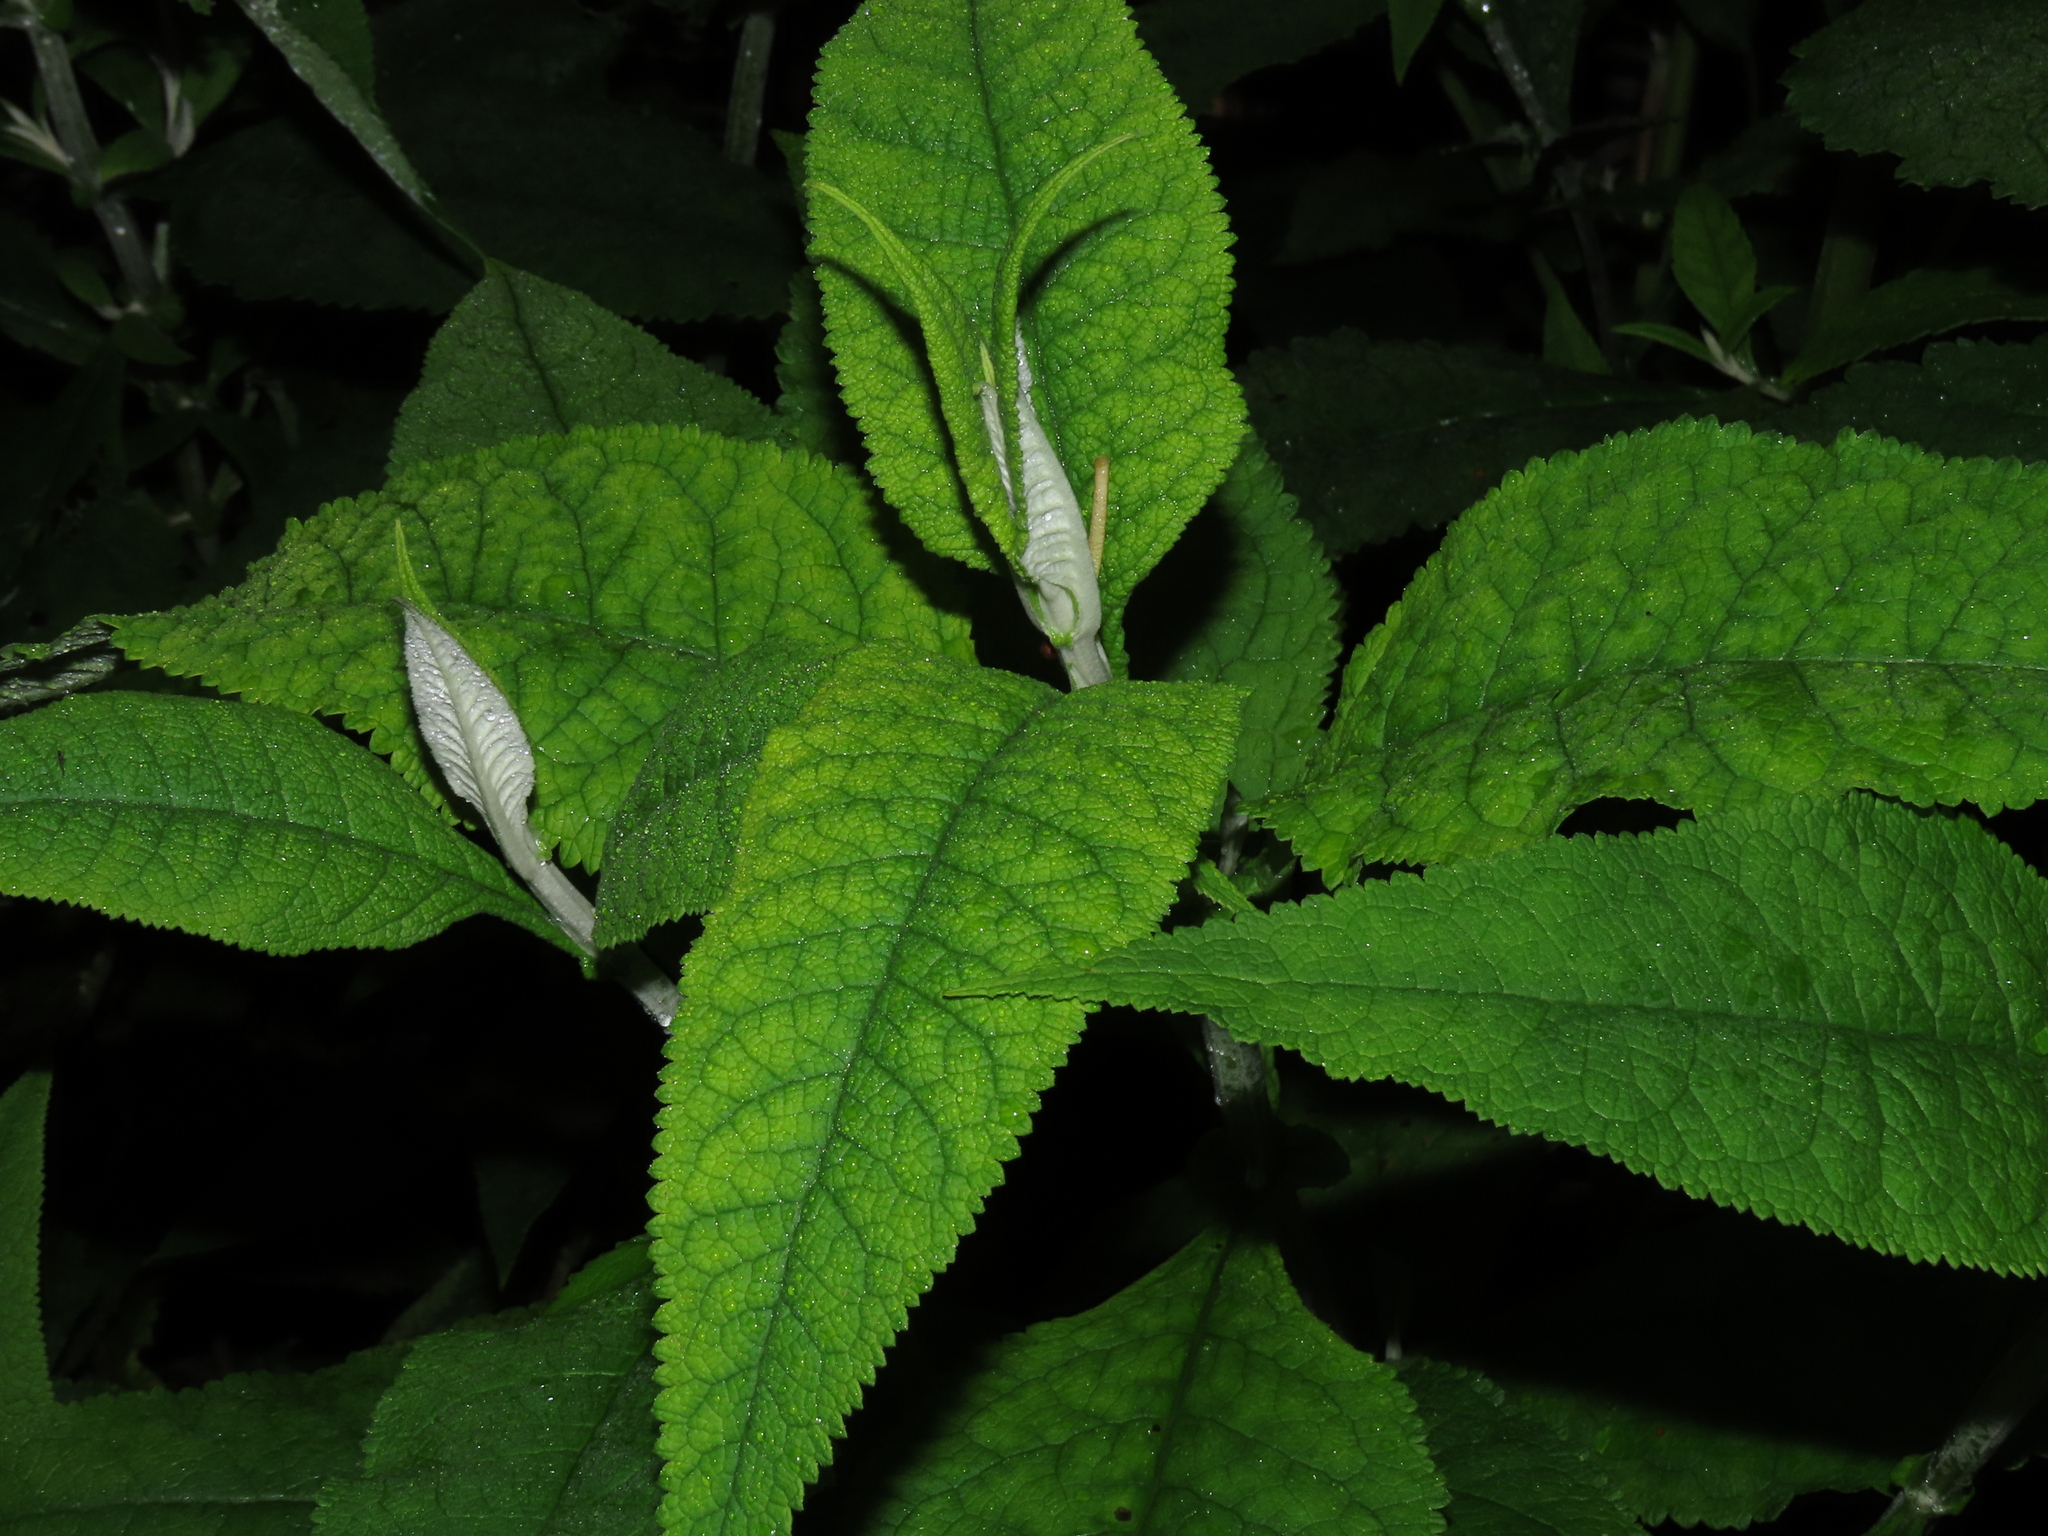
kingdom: Plantae
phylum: Tracheophyta
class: Magnoliopsida
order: Lamiales
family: Scrophulariaceae
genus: Buddleja
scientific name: Buddleja globosa
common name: Orange-ball-tree
